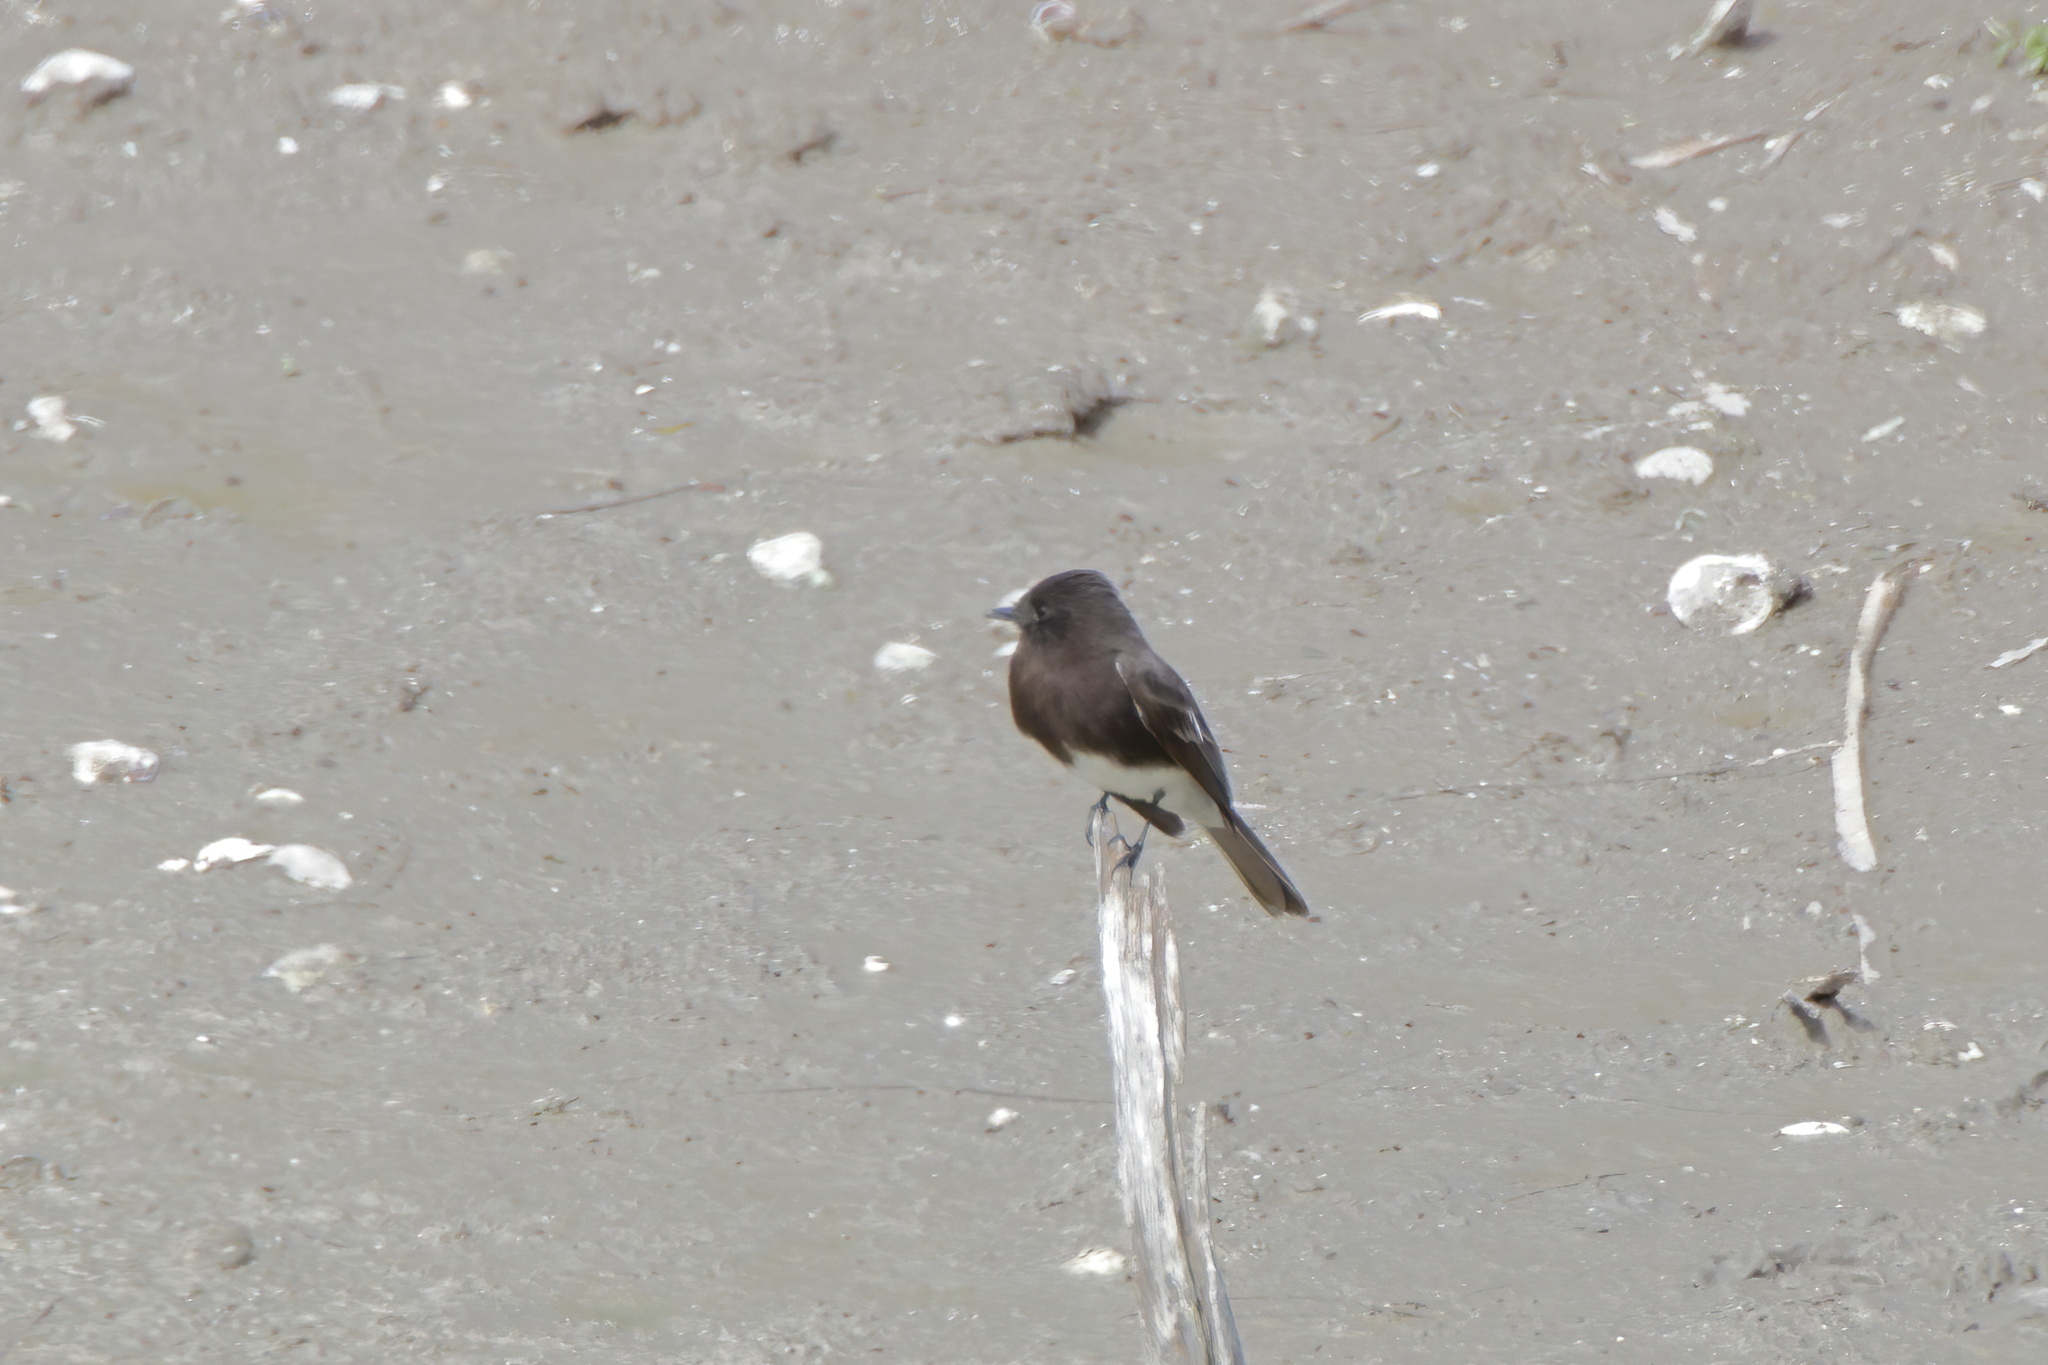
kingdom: Animalia
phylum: Chordata
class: Aves
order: Passeriformes
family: Tyrannidae
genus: Sayornis
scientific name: Sayornis nigricans
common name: Black phoebe
